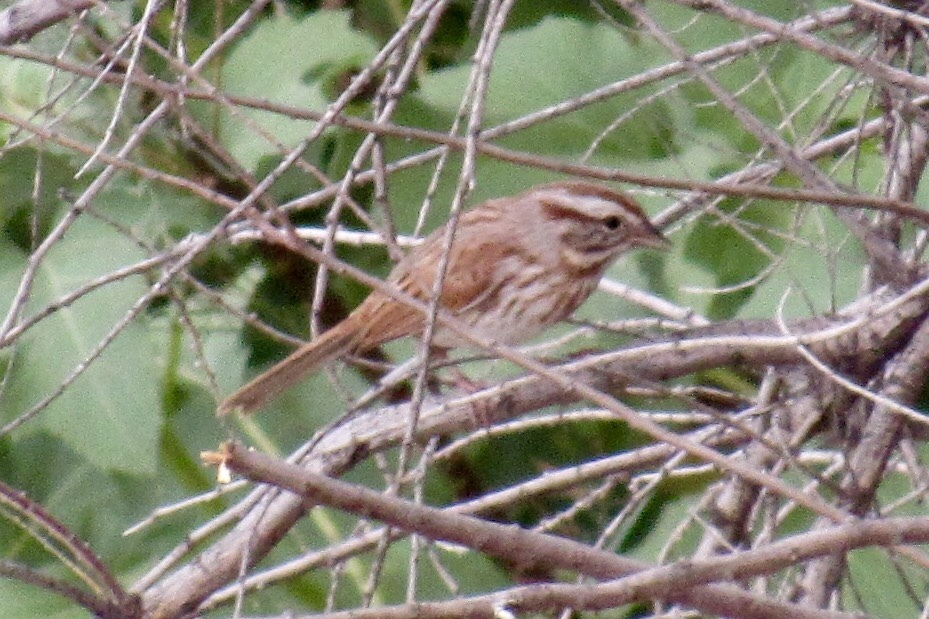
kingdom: Animalia
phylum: Chordata
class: Aves
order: Passeriformes
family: Passerellidae
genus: Melospiza
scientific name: Melospiza melodia
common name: Song sparrow
